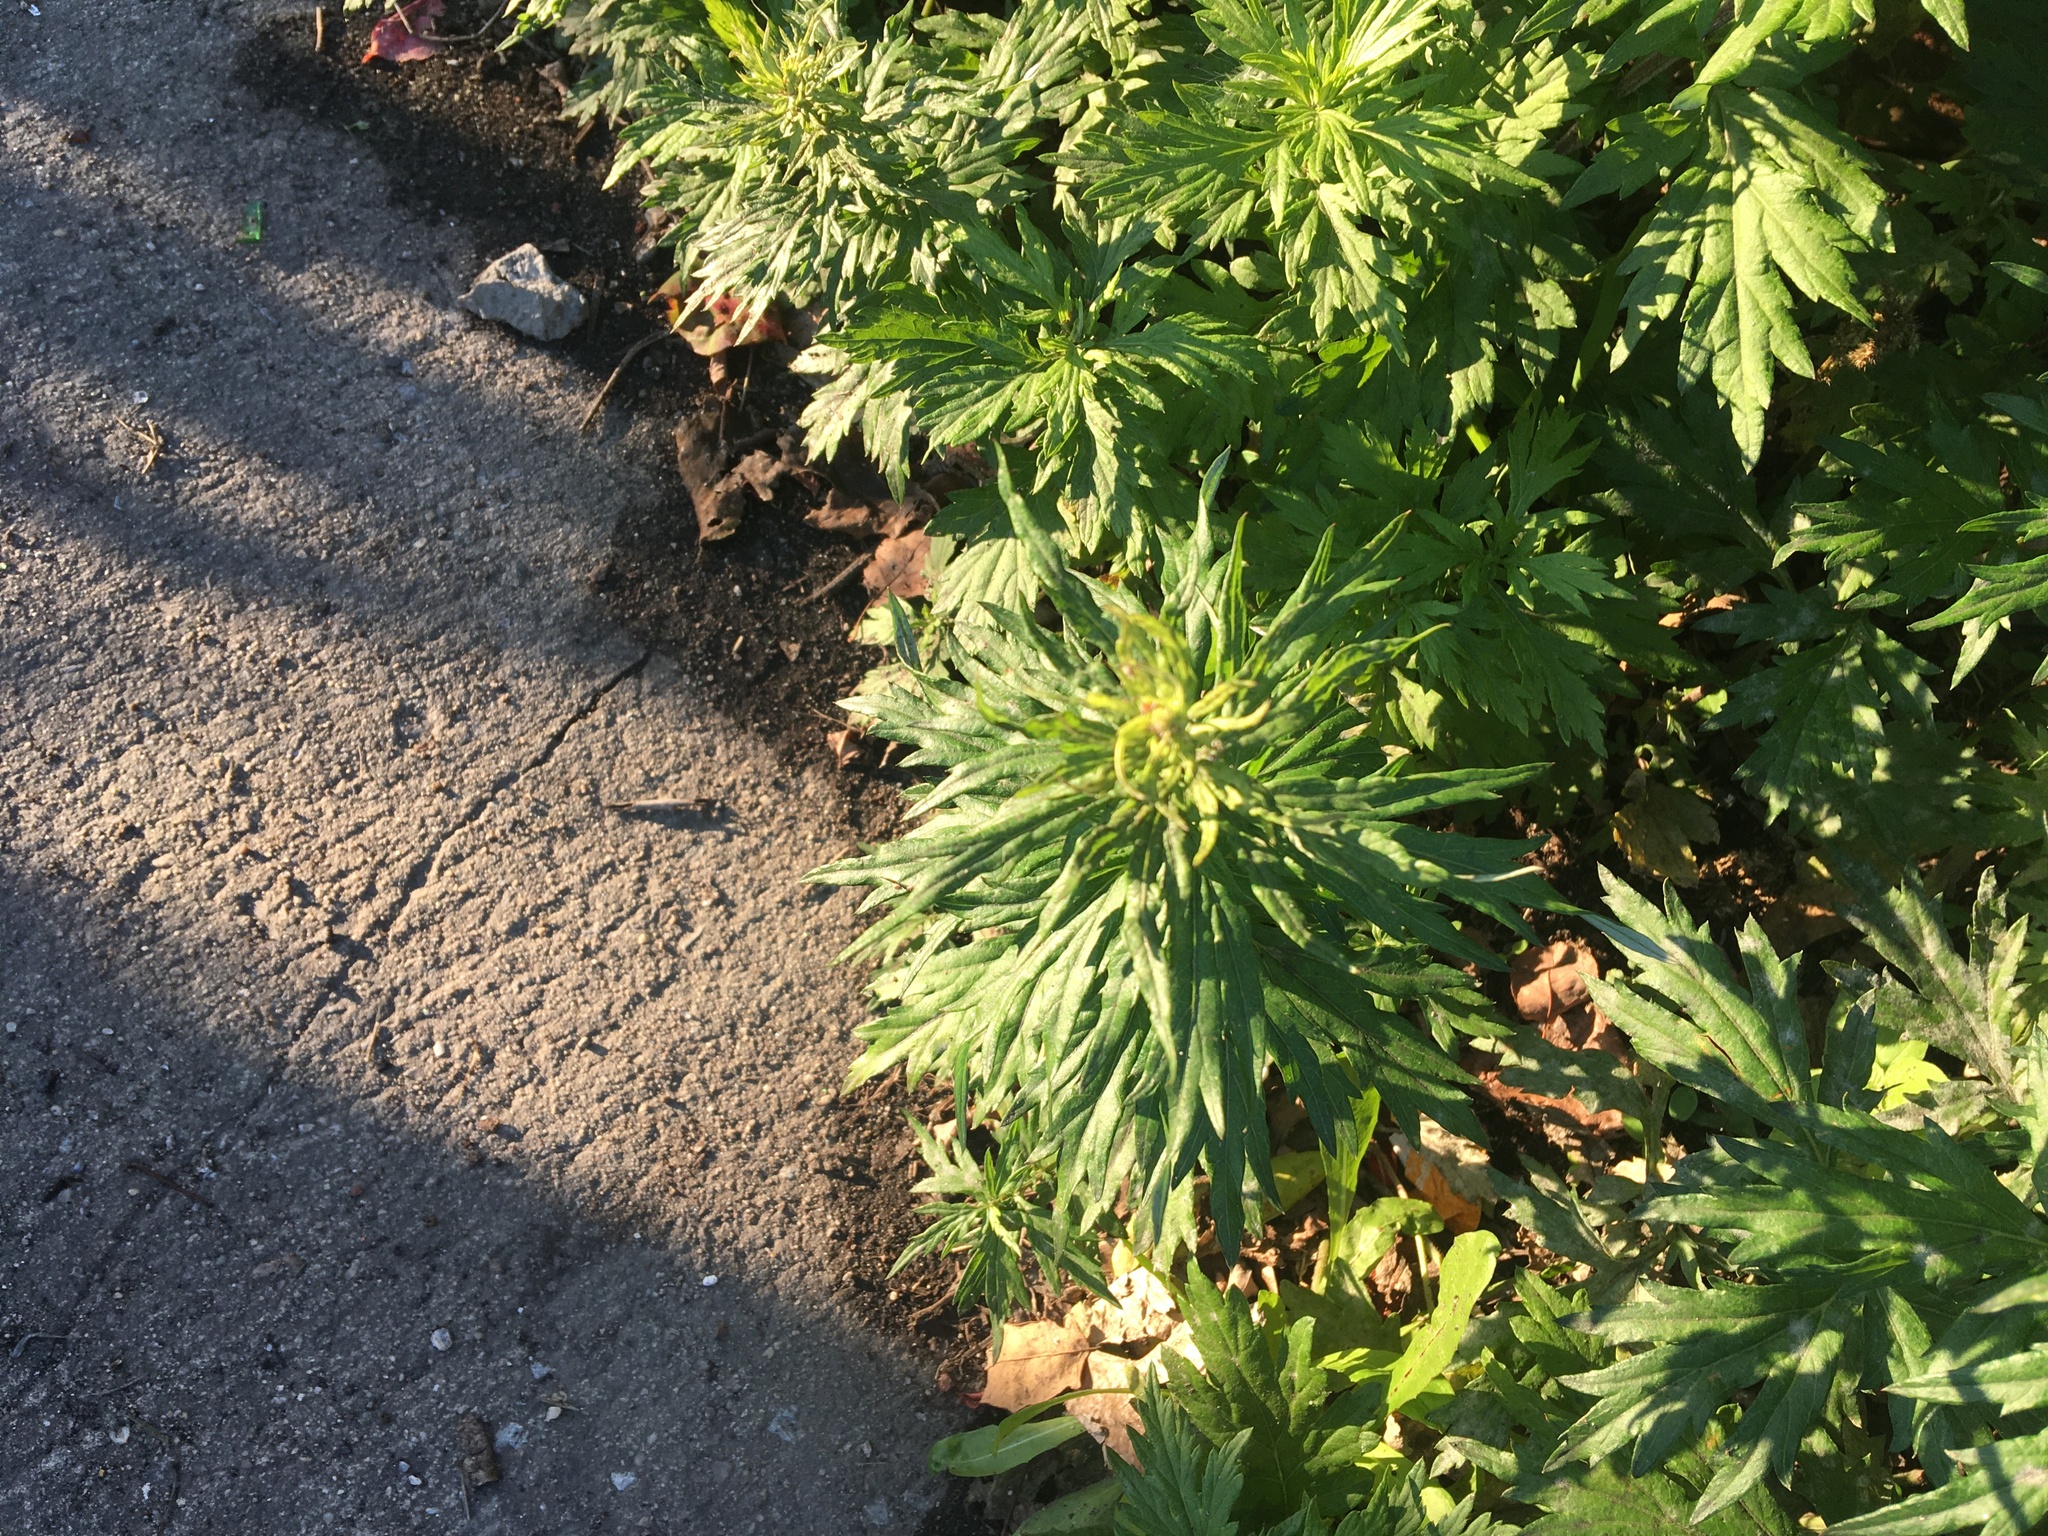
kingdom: Plantae
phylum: Tracheophyta
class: Magnoliopsida
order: Asterales
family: Asteraceae
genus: Artemisia
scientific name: Artemisia vulgaris
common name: Mugwort
